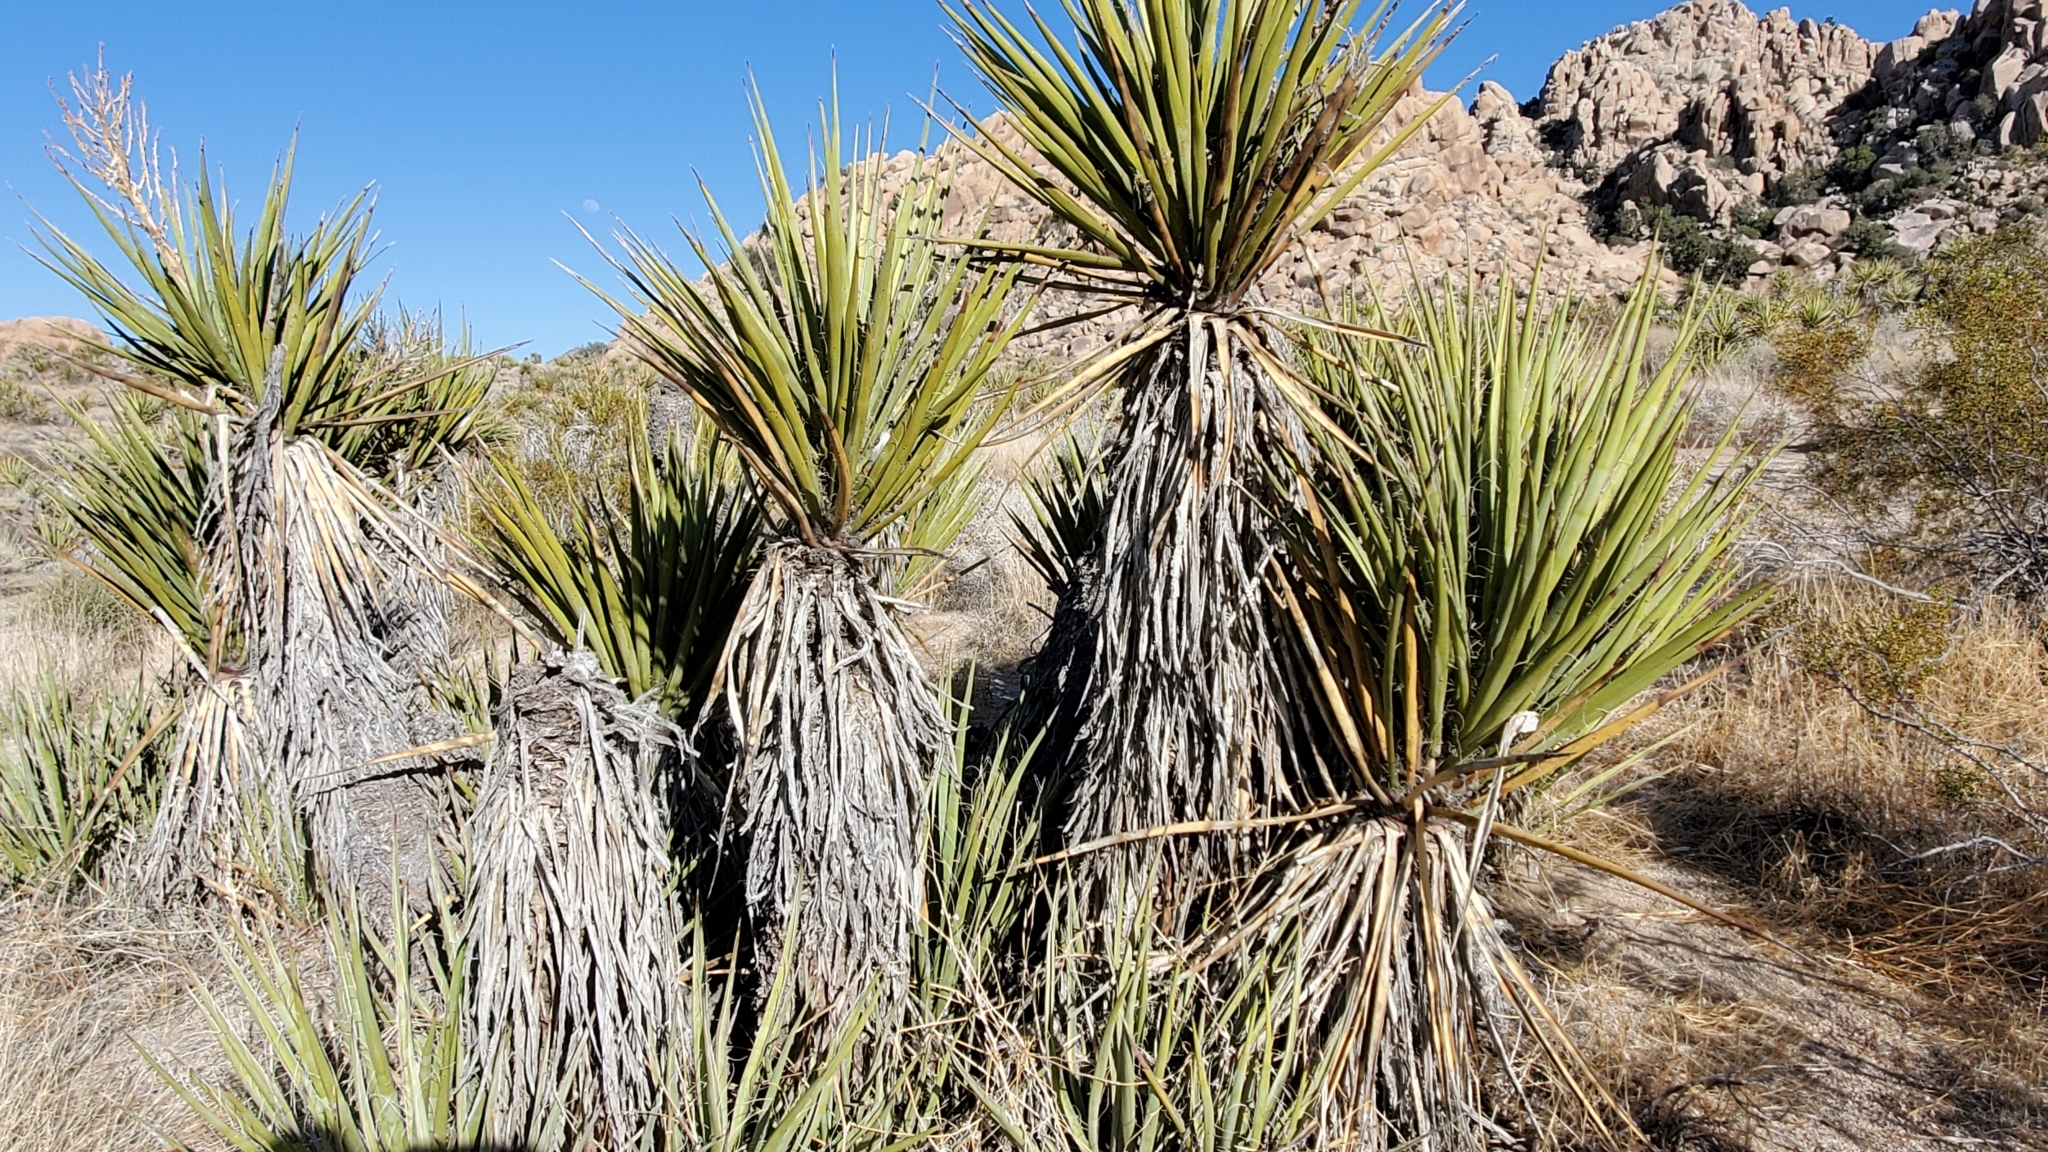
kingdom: Plantae
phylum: Tracheophyta
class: Liliopsida
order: Asparagales
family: Asparagaceae
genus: Yucca
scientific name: Yucca schidigera
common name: Mojave yucca
